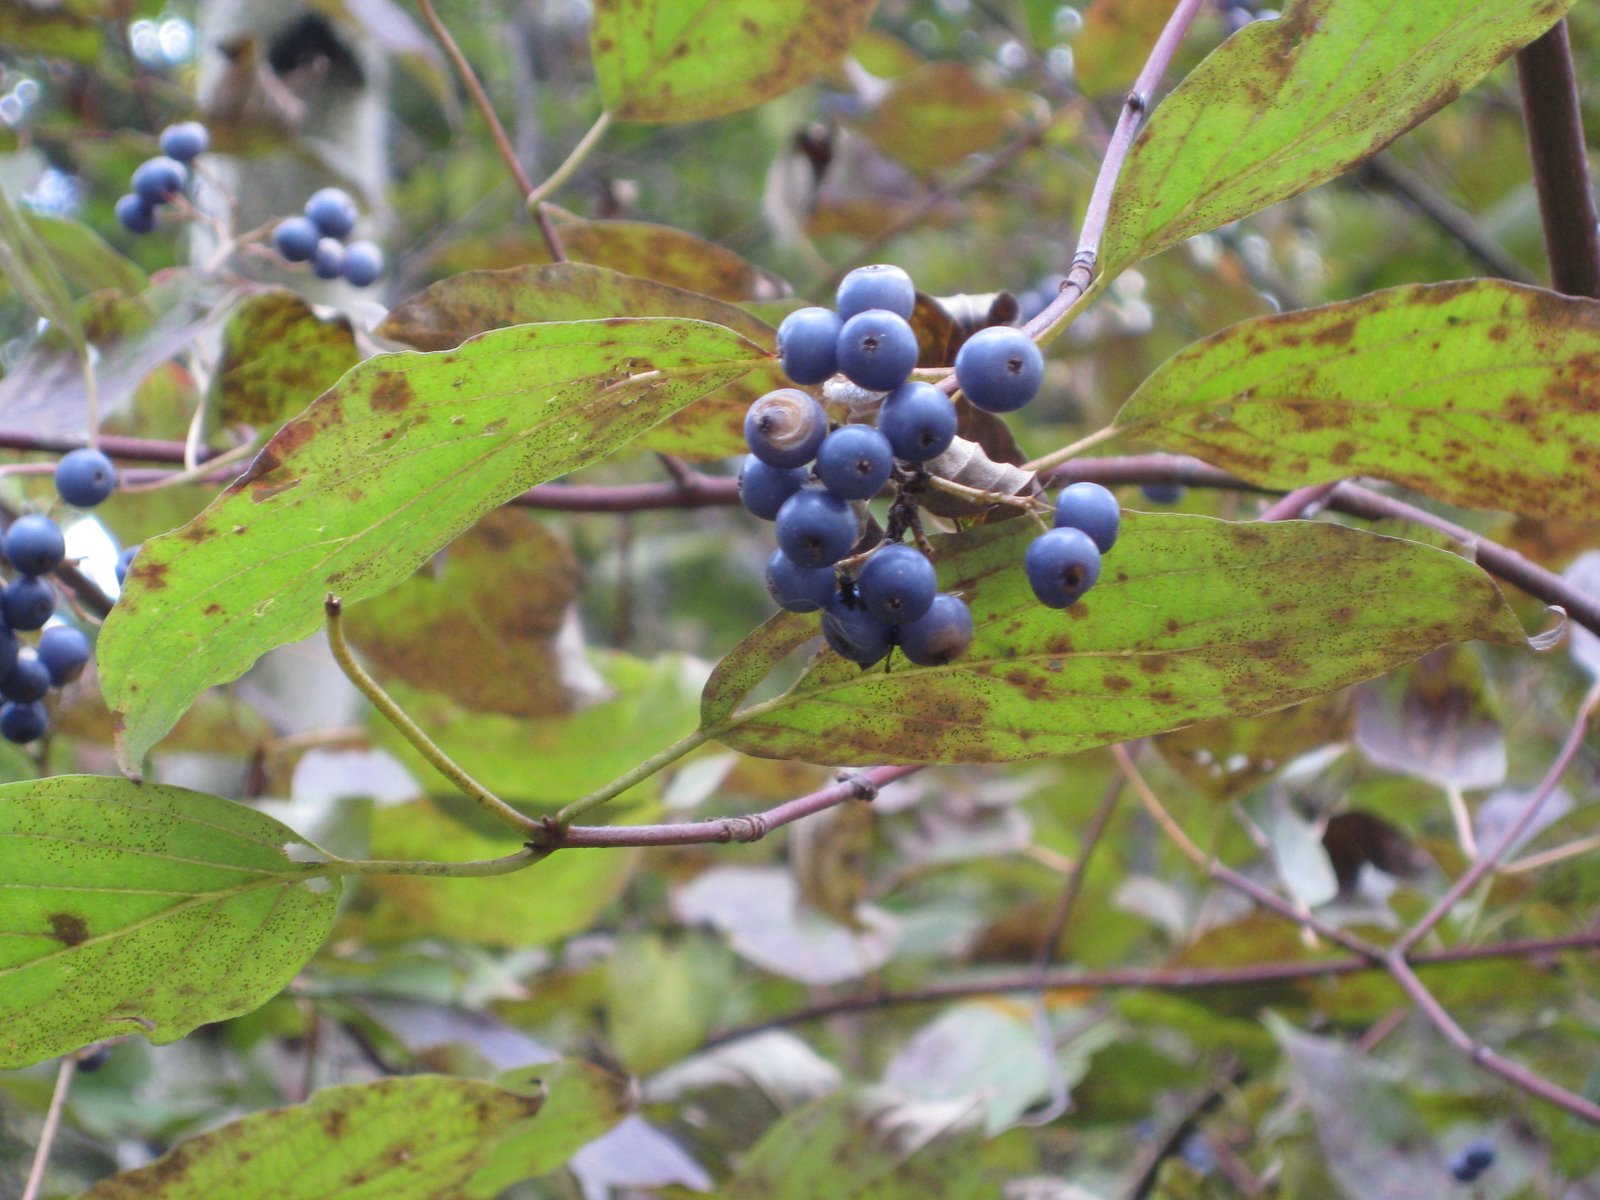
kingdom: Plantae
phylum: Tracheophyta
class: Magnoliopsida
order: Cornales
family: Cornaceae
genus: Cornus
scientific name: Cornus amomum
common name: Silky dogwood
